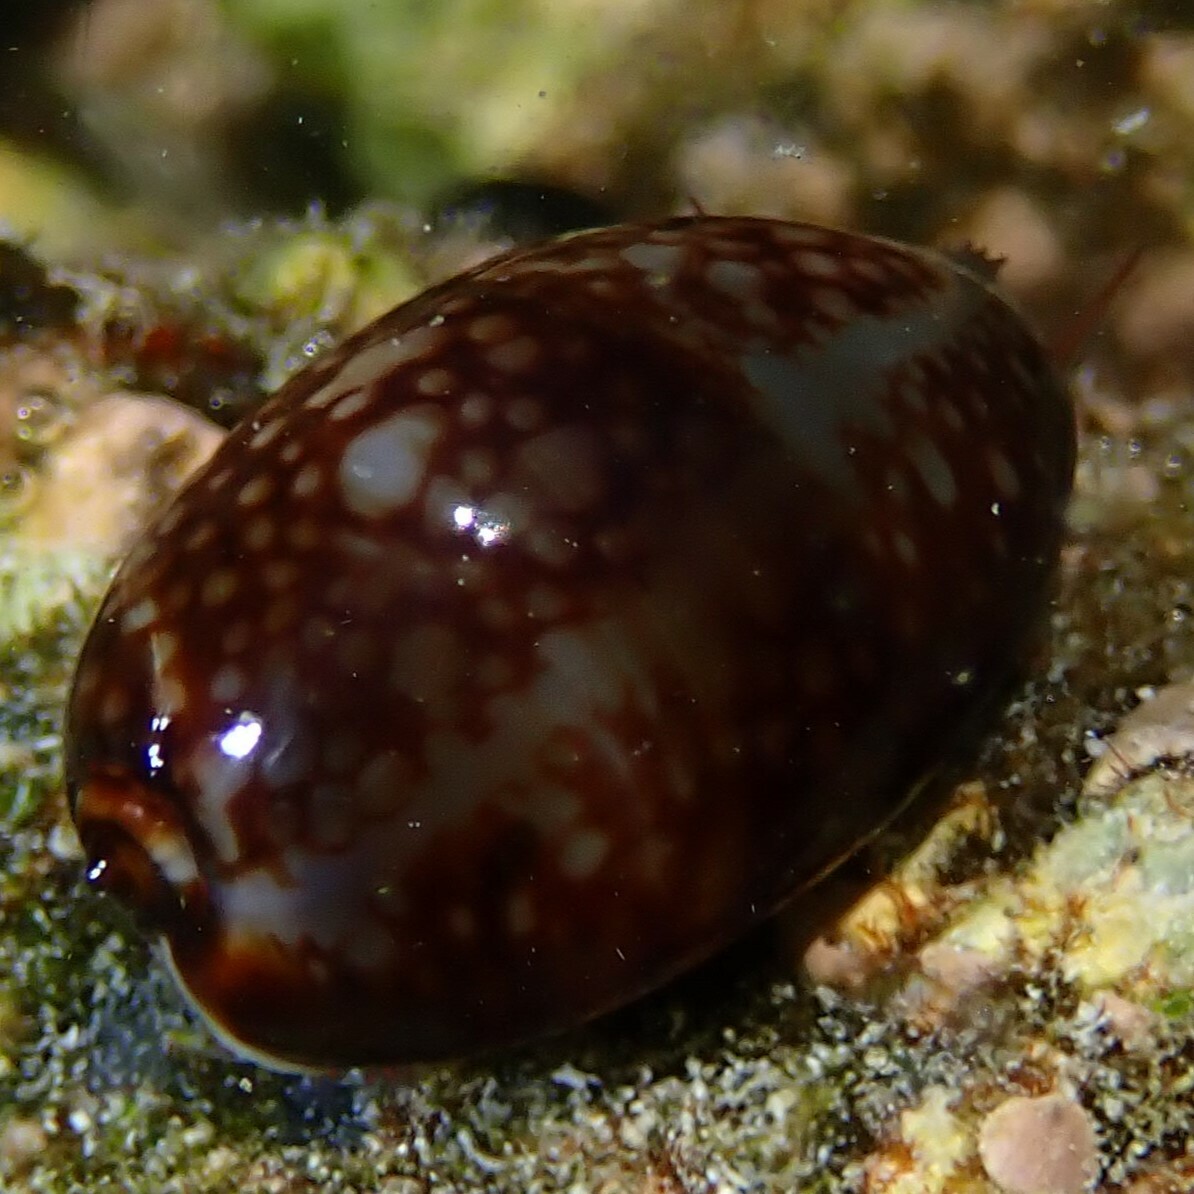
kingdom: Animalia
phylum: Mollusca
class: Gastropoda
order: Littorinimorpha
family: Cypraeidae
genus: Monetaria
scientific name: Monetaria caputophidii
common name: Snake's head cowry
